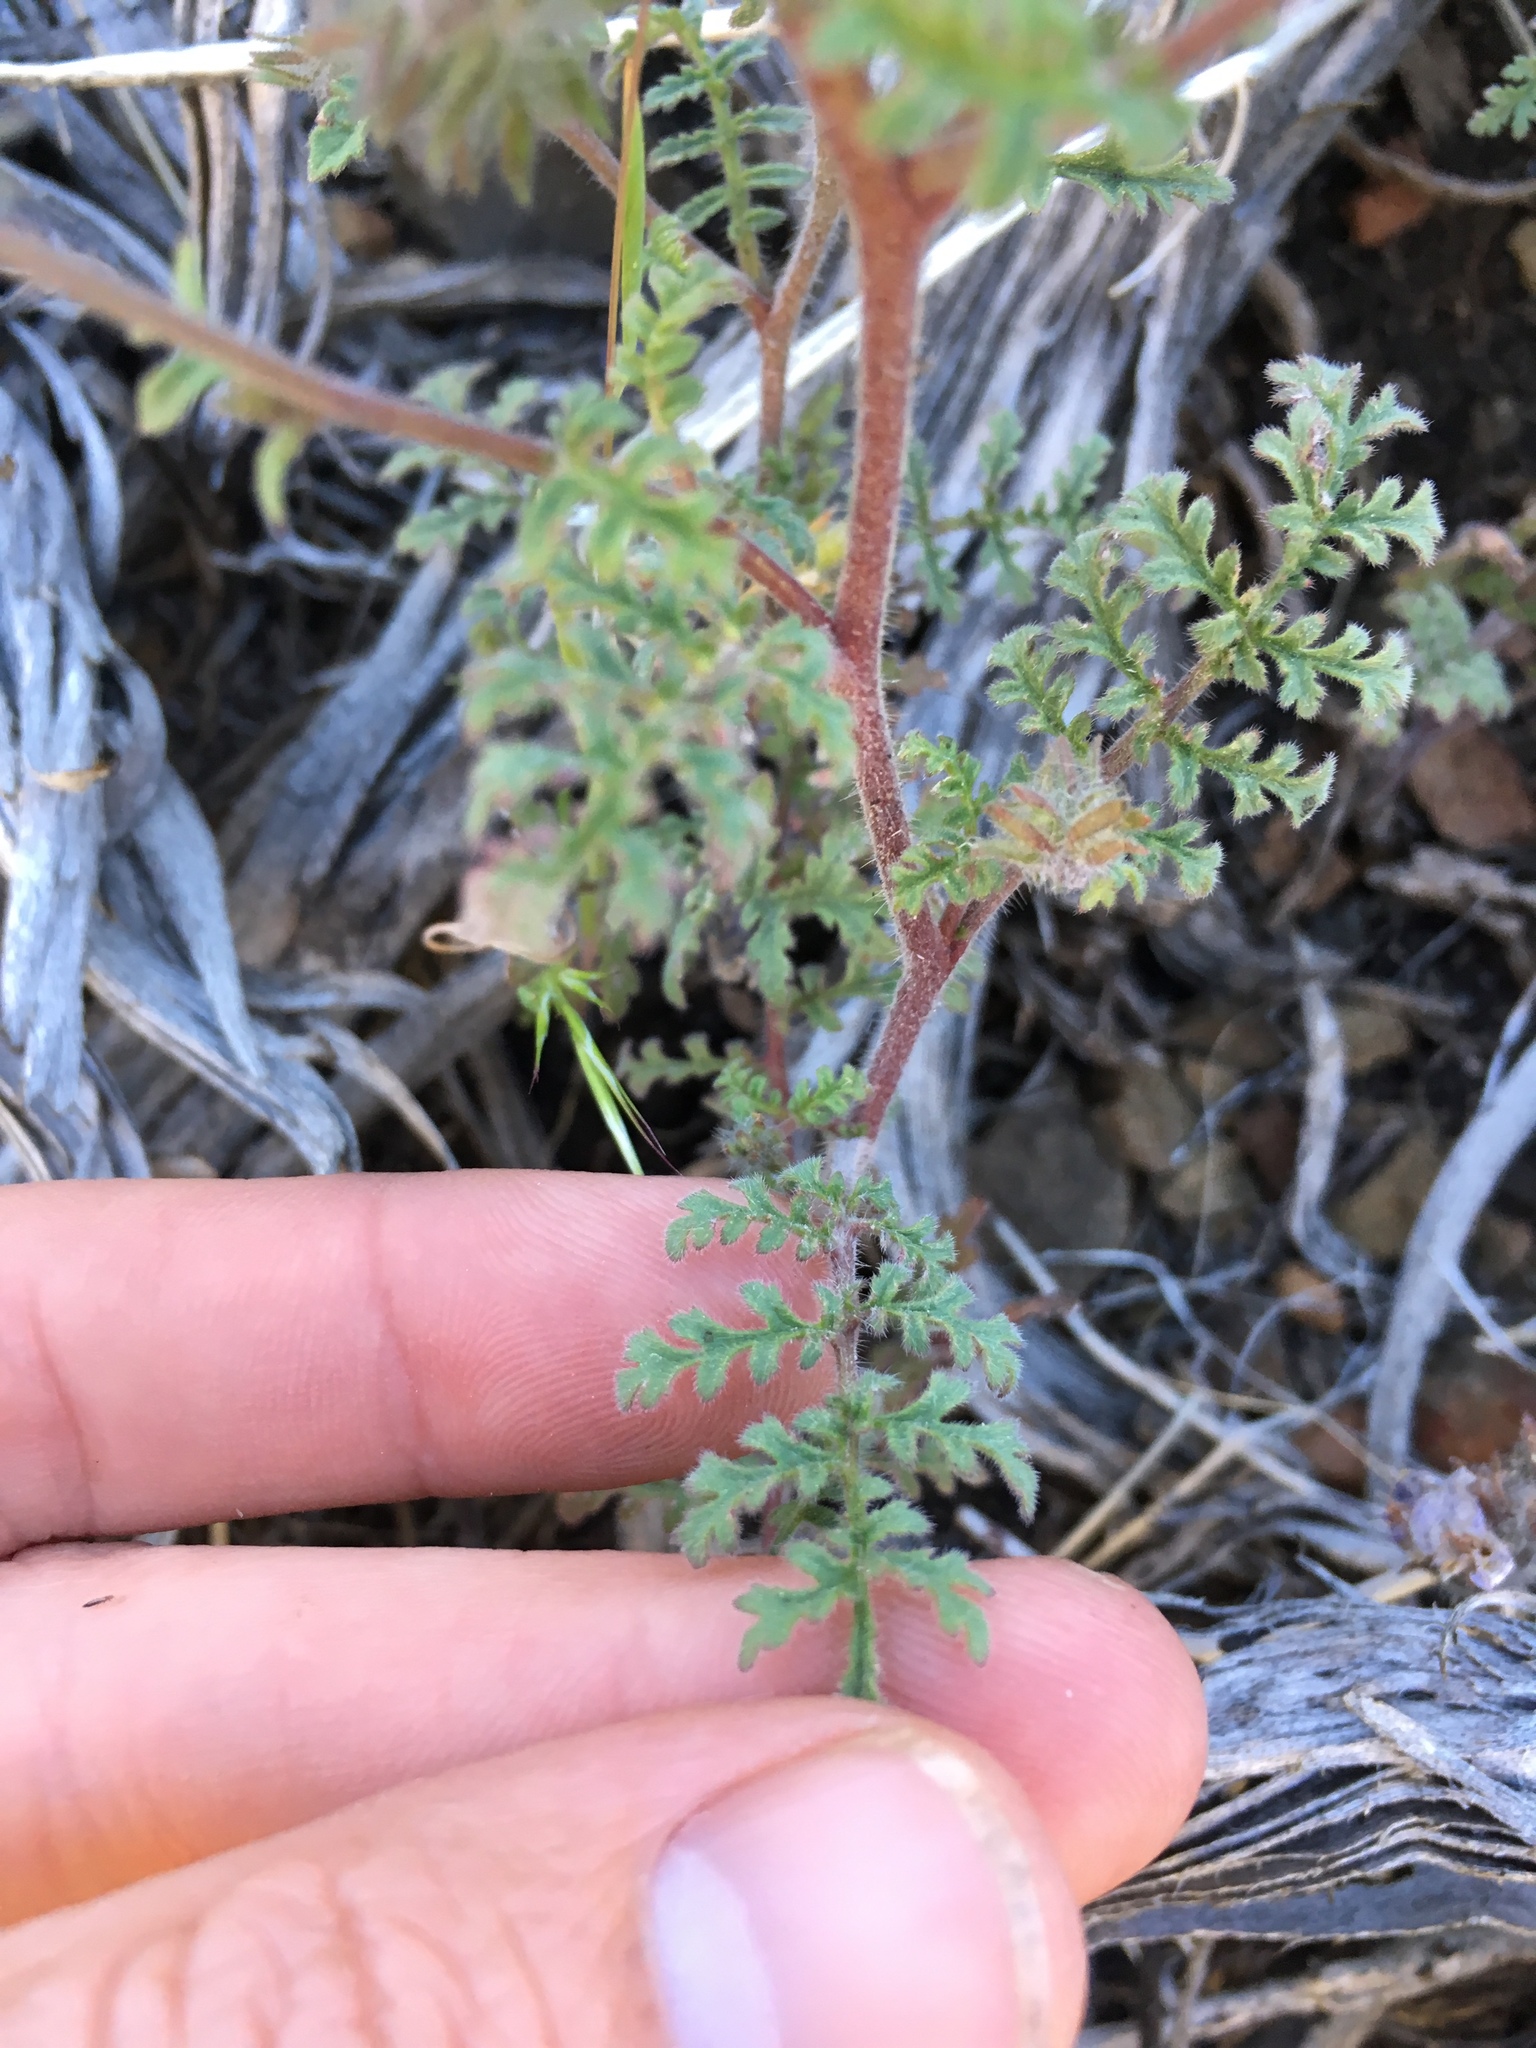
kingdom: Plantae
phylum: Tracheophyta
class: Magnoliopsida
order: Boraginales
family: Hydrophyllaceae
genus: Phacelia
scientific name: Phacelia vallis-mortae
